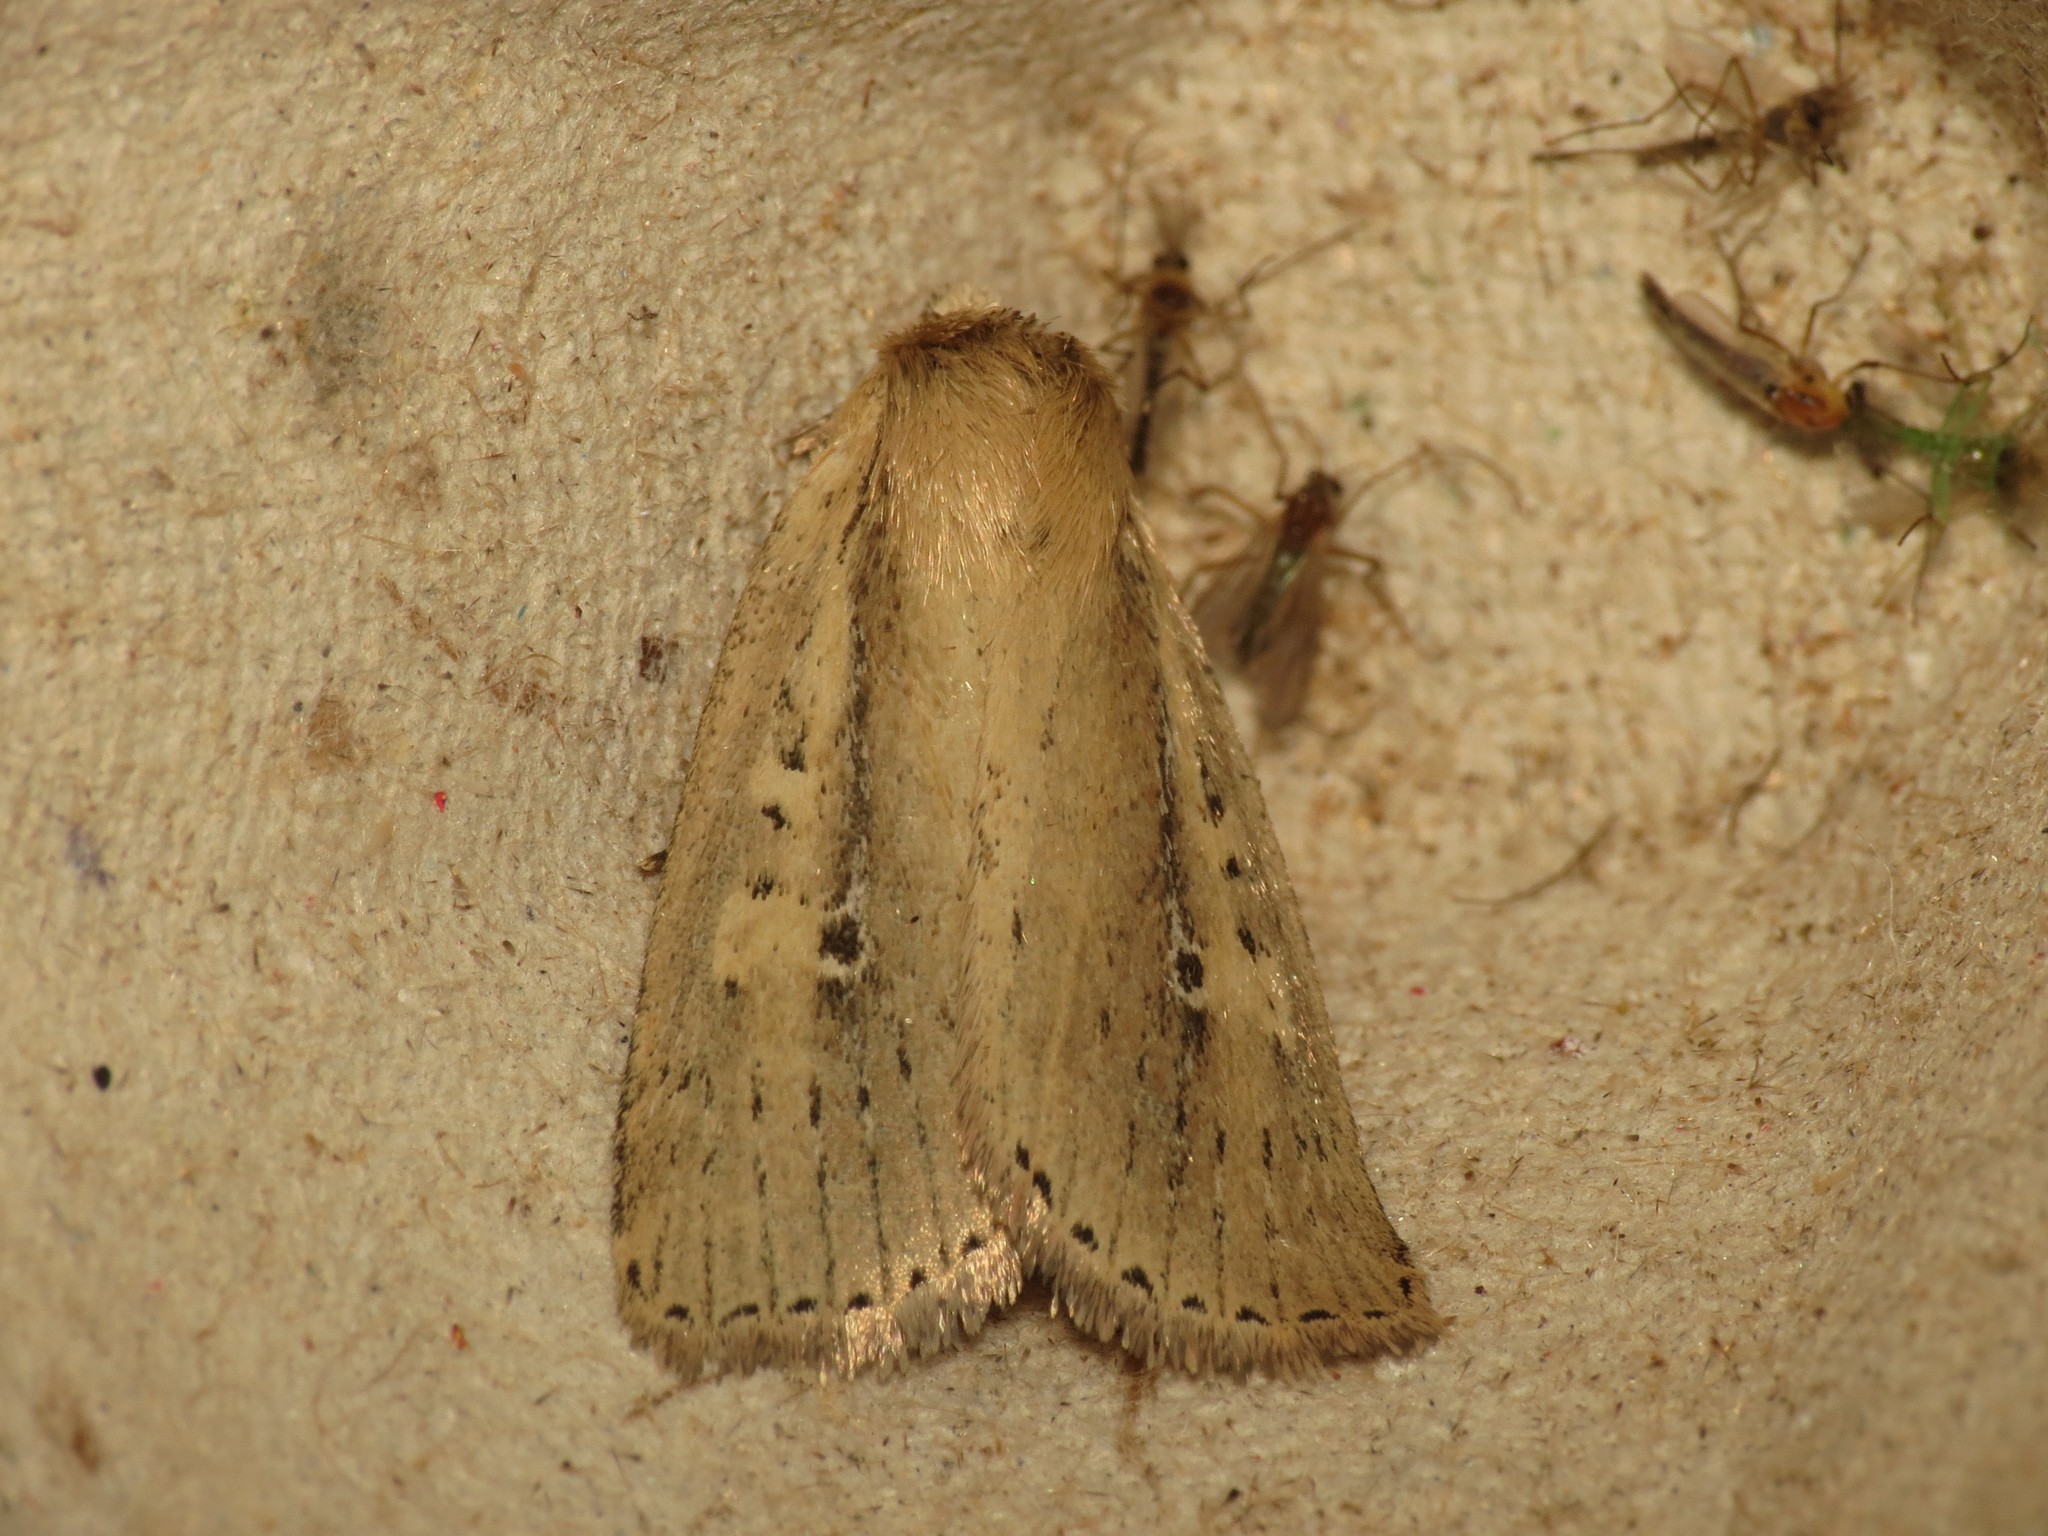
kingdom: Animalia
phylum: Arthropoda
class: Insecta
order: Lepidoptera
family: Noctuidae
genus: Archanara
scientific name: Archanara dissoluta
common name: Brown-veined wainscot
